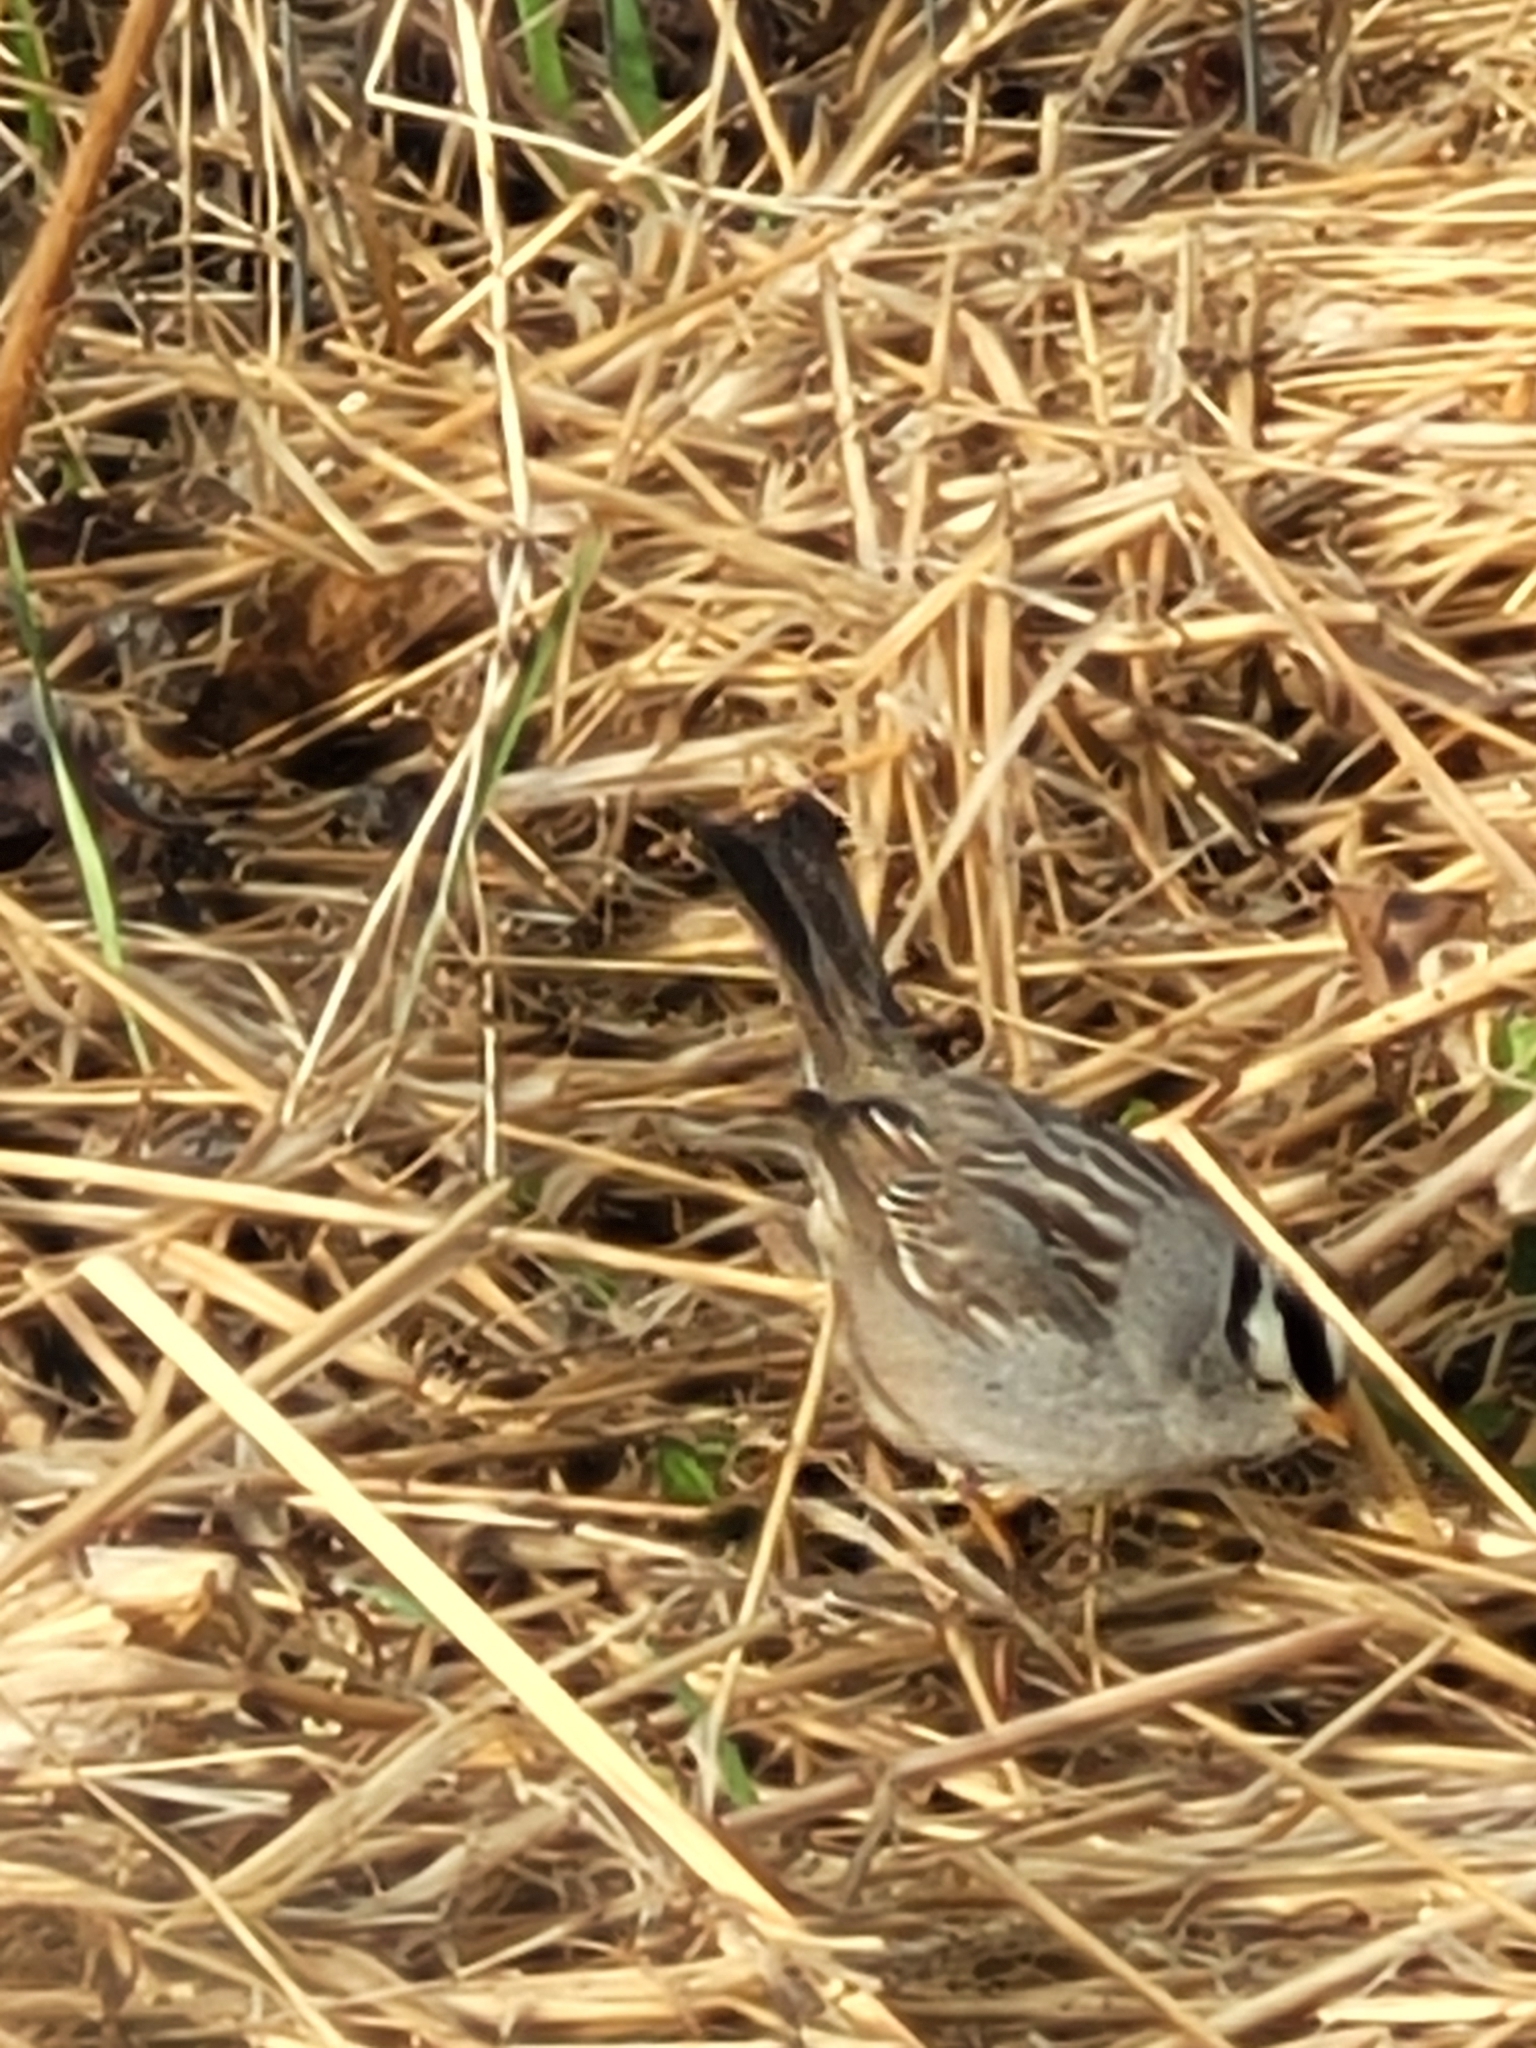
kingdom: Animalia
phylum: Chordata
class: Aves
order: Passeriformes
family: Passerellidae
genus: Zonotrichia
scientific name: Zonotrichia leucophrys
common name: White-crowned sparrow
